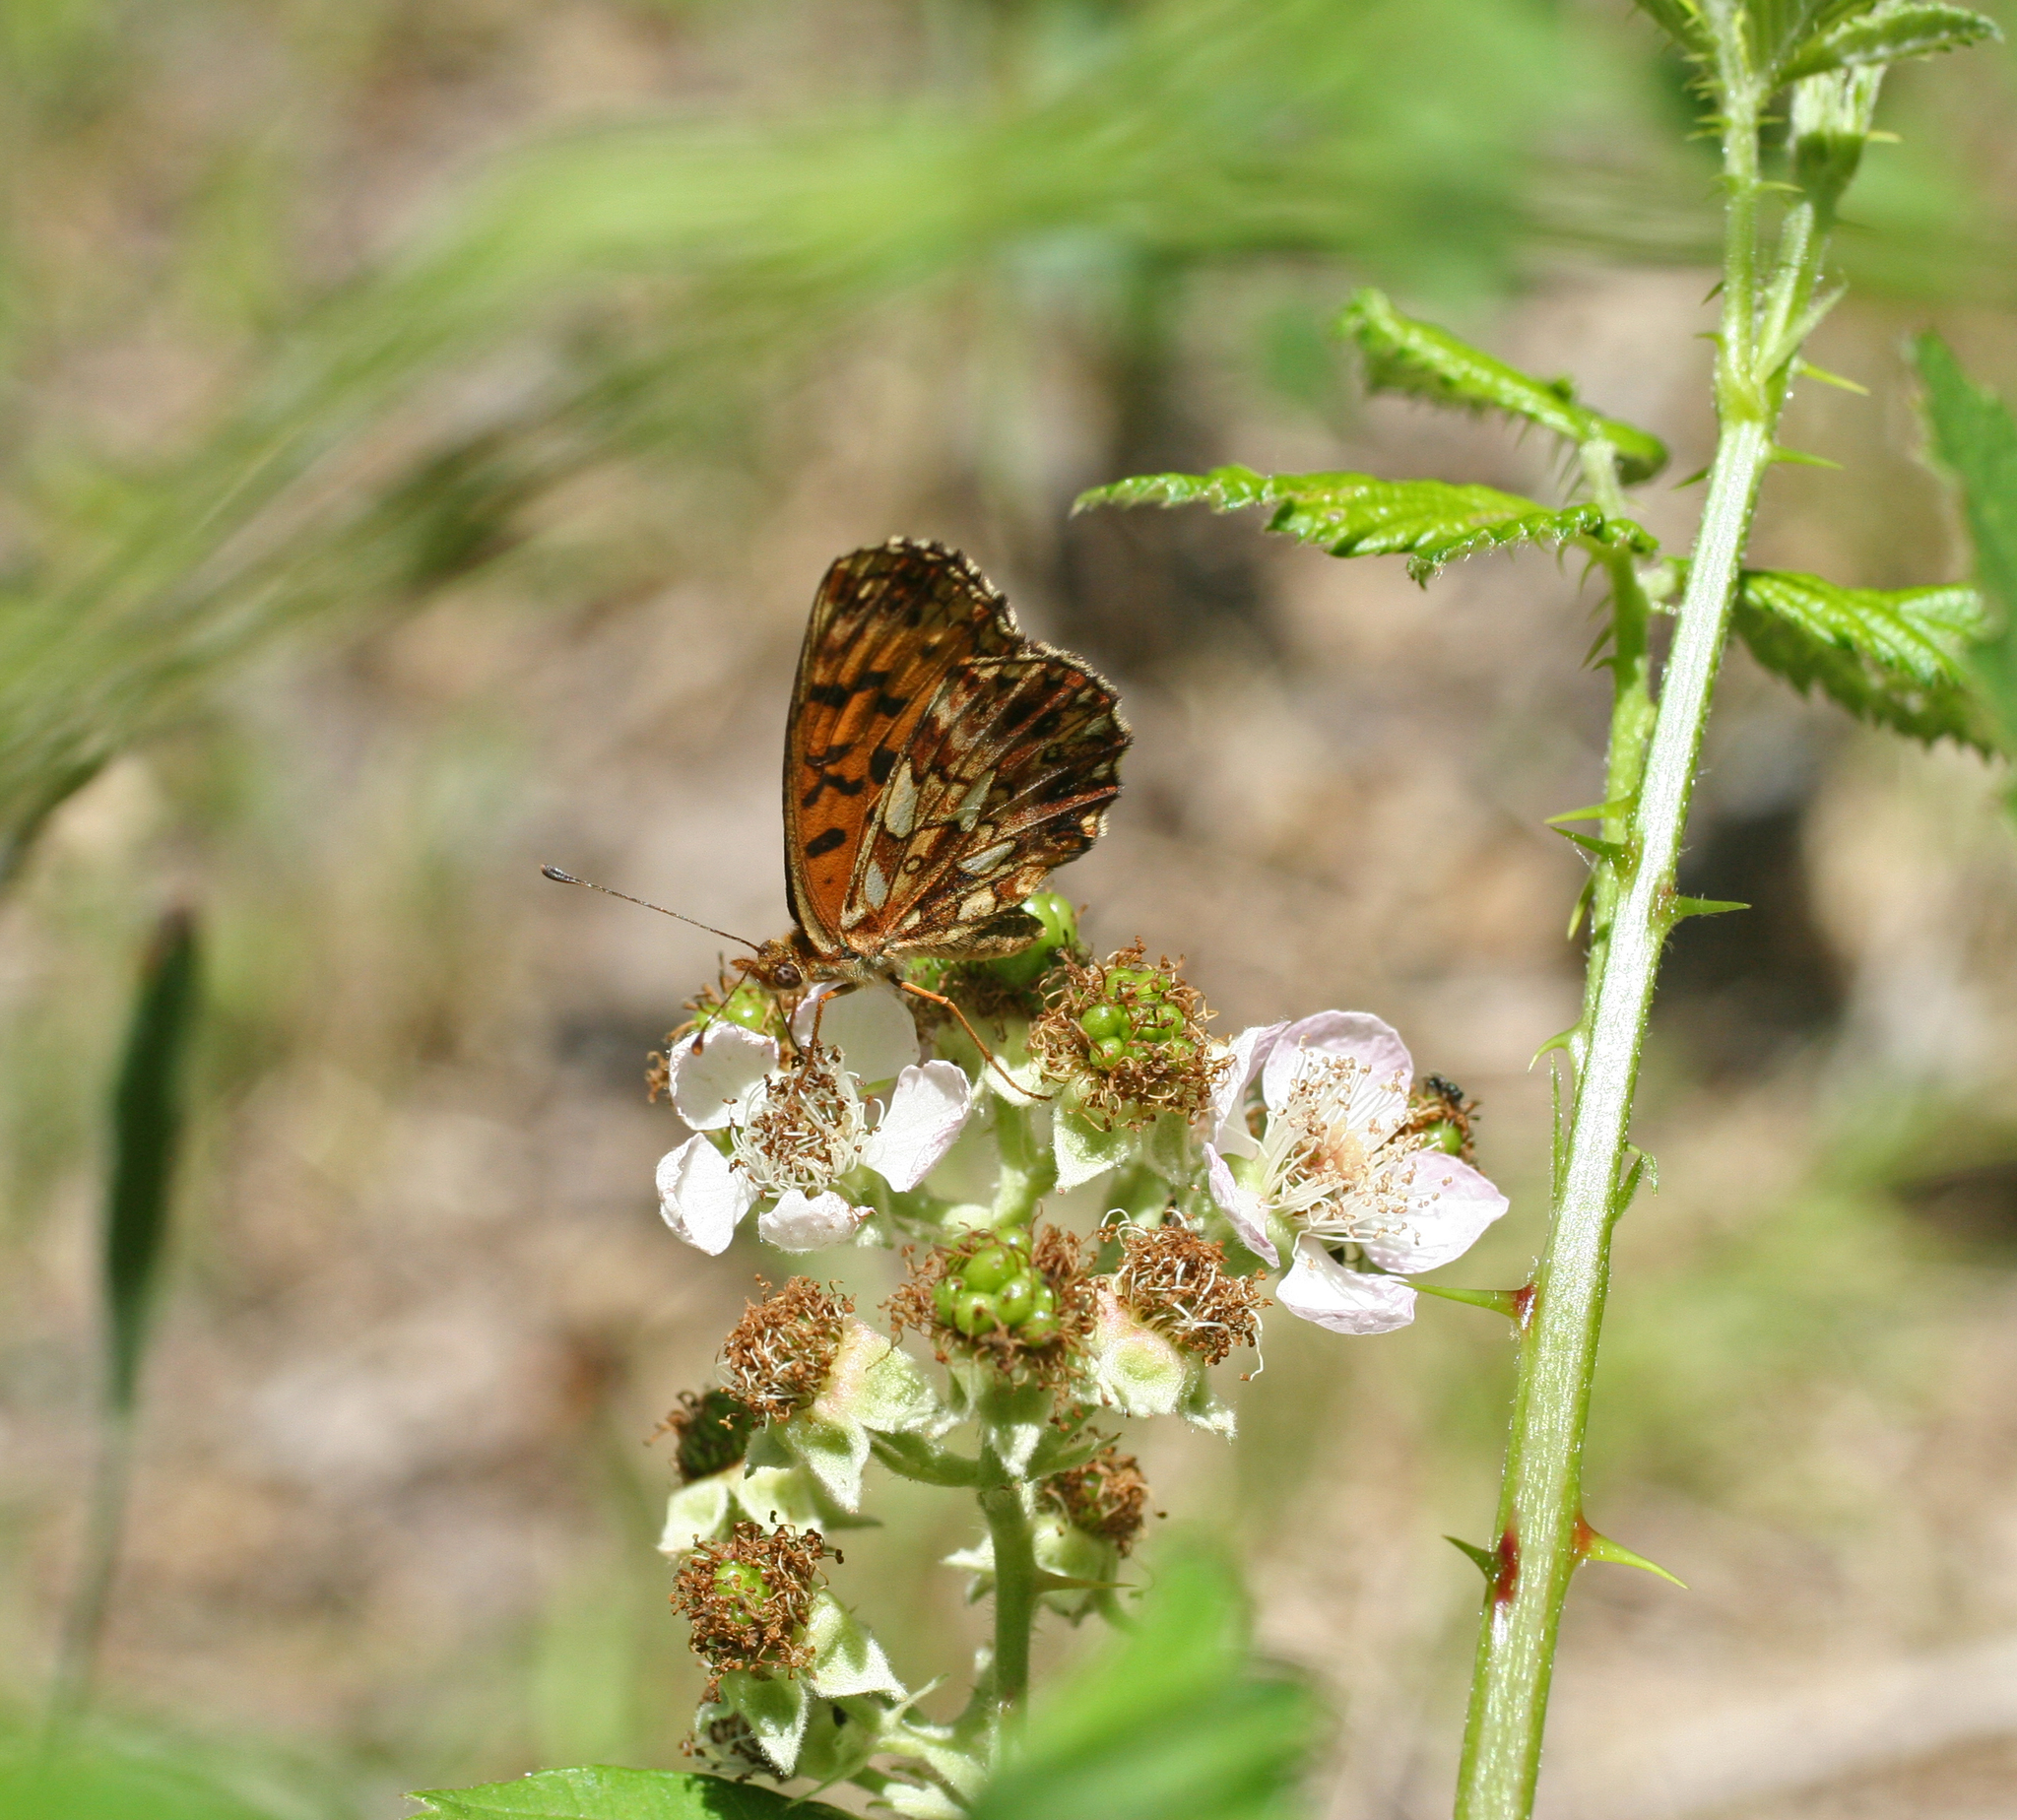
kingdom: Animalia
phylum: Arthropoda
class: Insecta
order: Lepidoptera
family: Nymphalidae
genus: Boloria
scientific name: Boloria dia
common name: Weaver's fritillary
